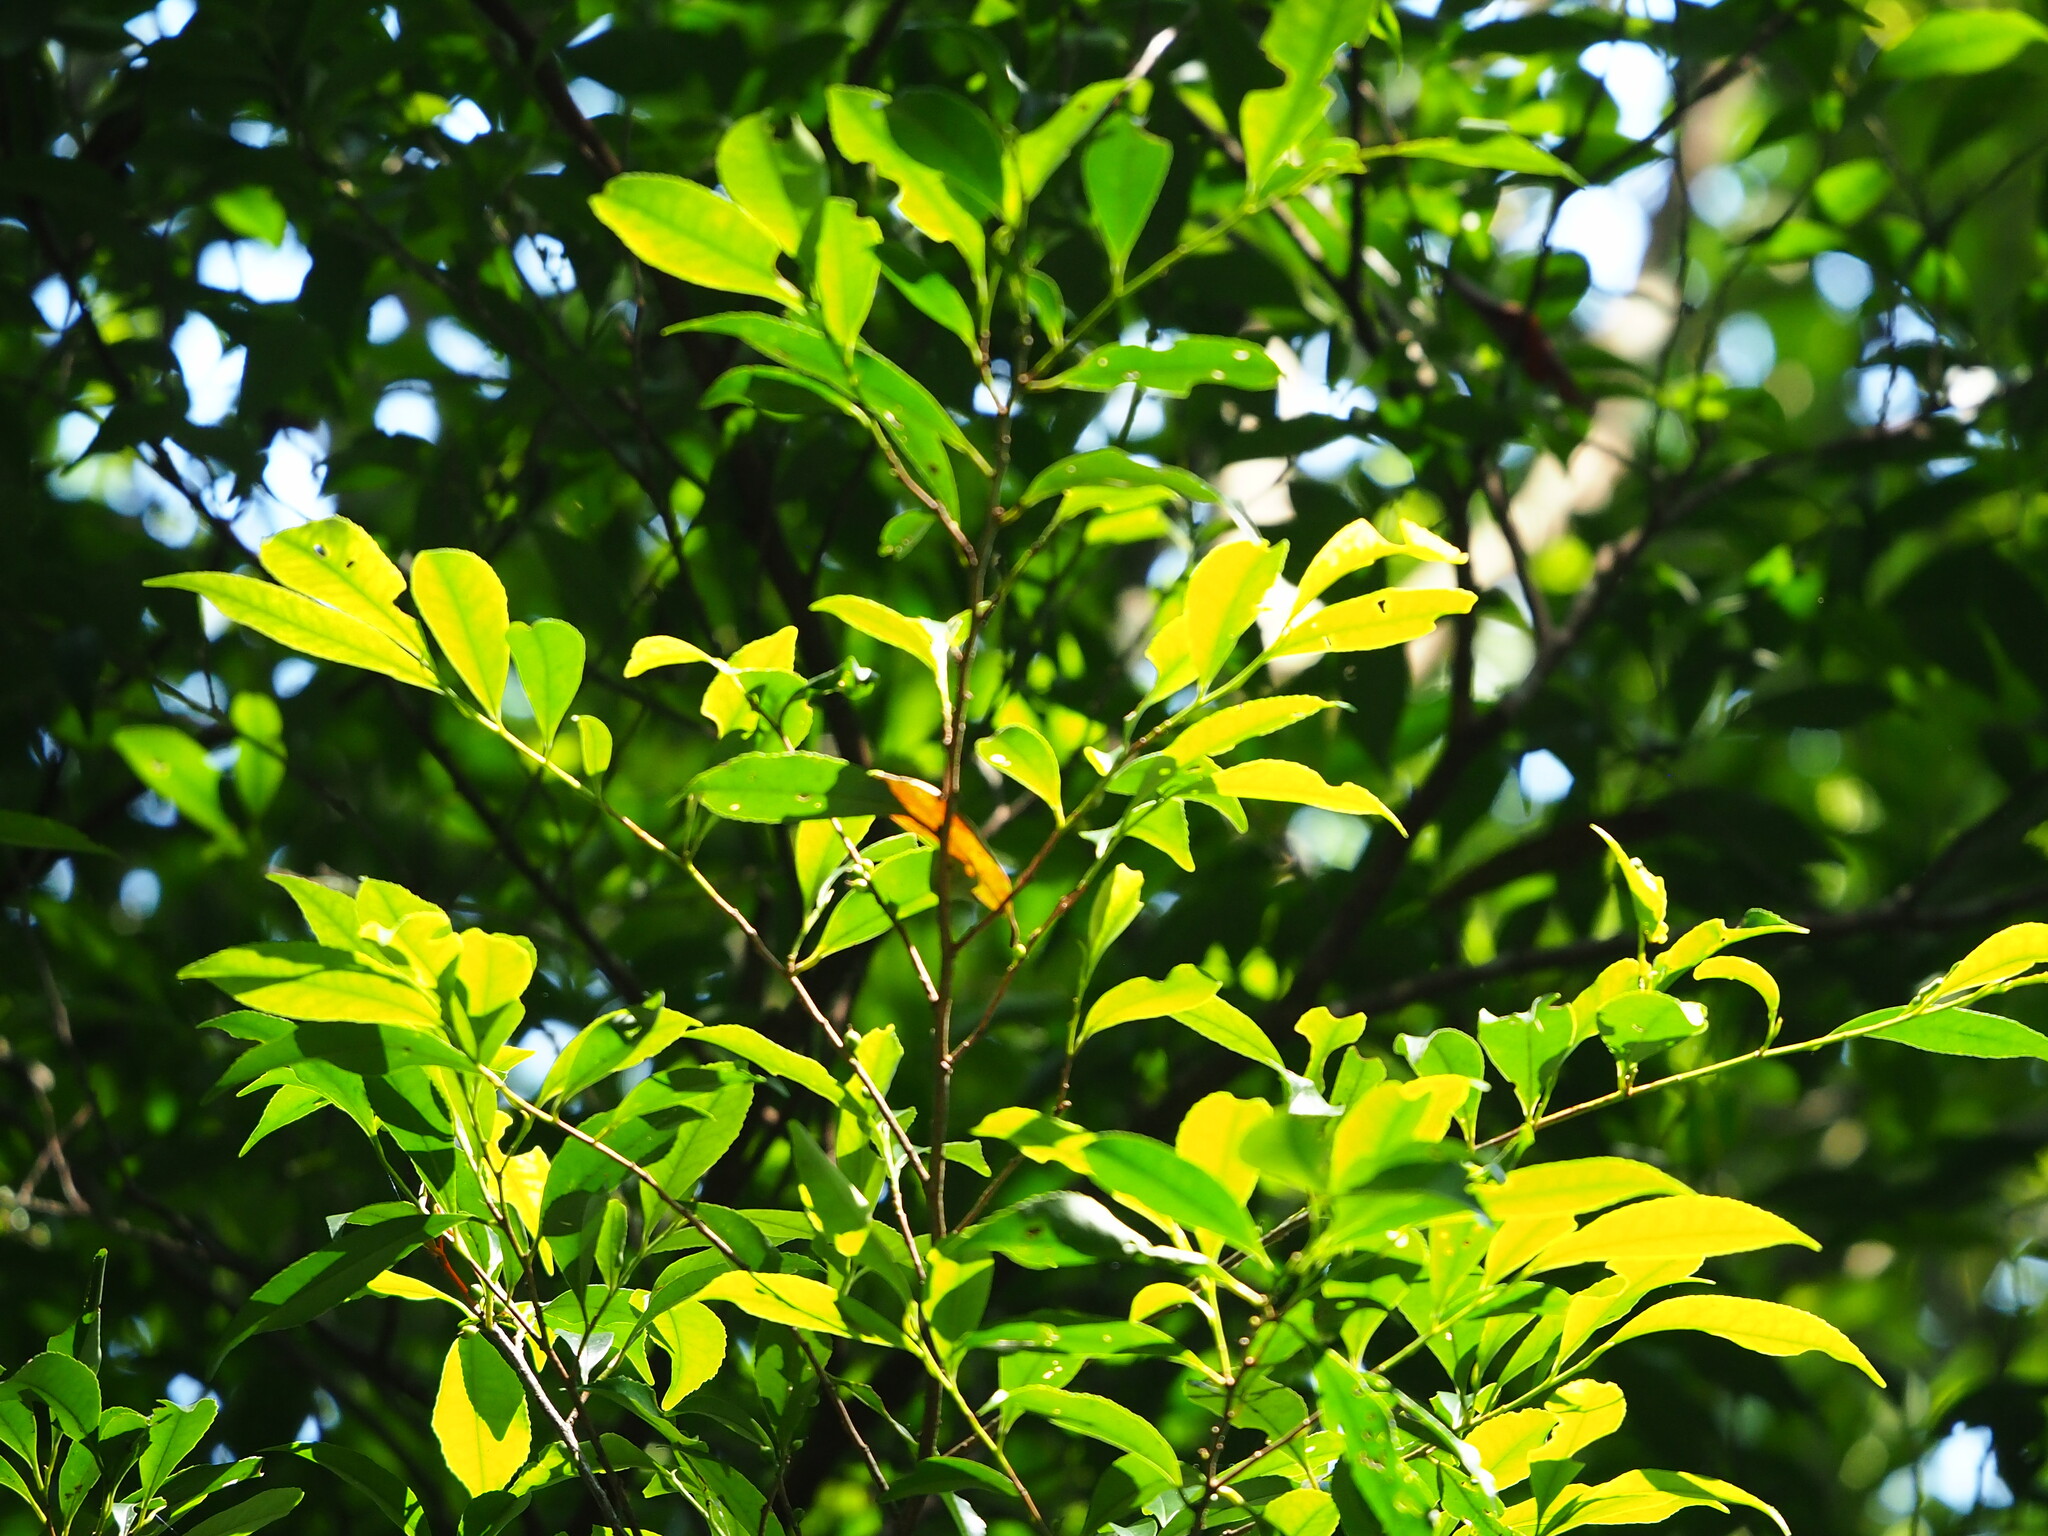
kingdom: Plantae
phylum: Tracheophyta
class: Magnoliopsida
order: Ericales
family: Pentaphylacaceae
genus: Eurya
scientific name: Eurya nitida
